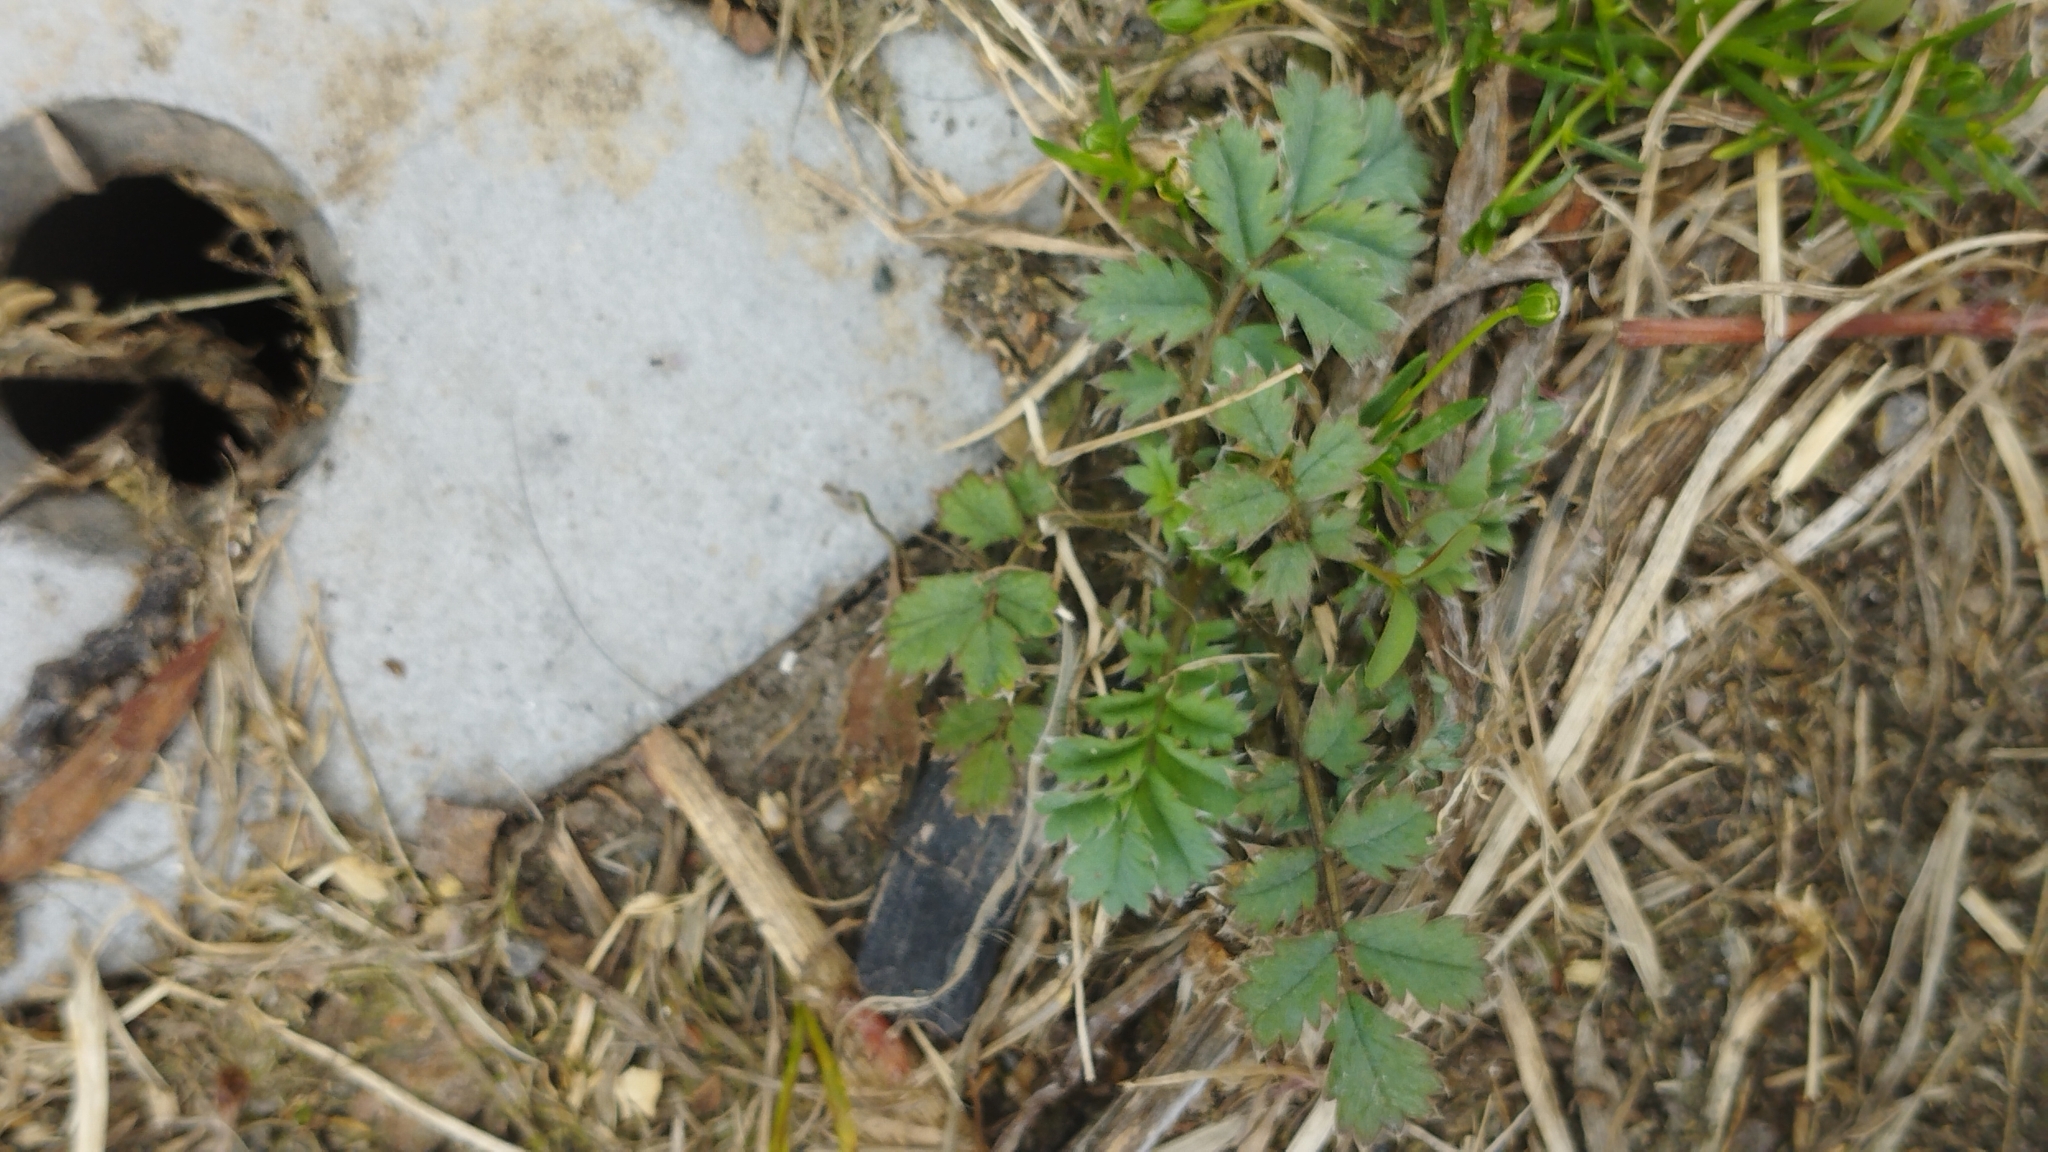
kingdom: Plantae
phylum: Tracheophyta
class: Magnoliopsida
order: Rosales
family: Rosaceae
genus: Acaena
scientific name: Acaena anserinifolia
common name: Bronze pirri-pirri-bur
